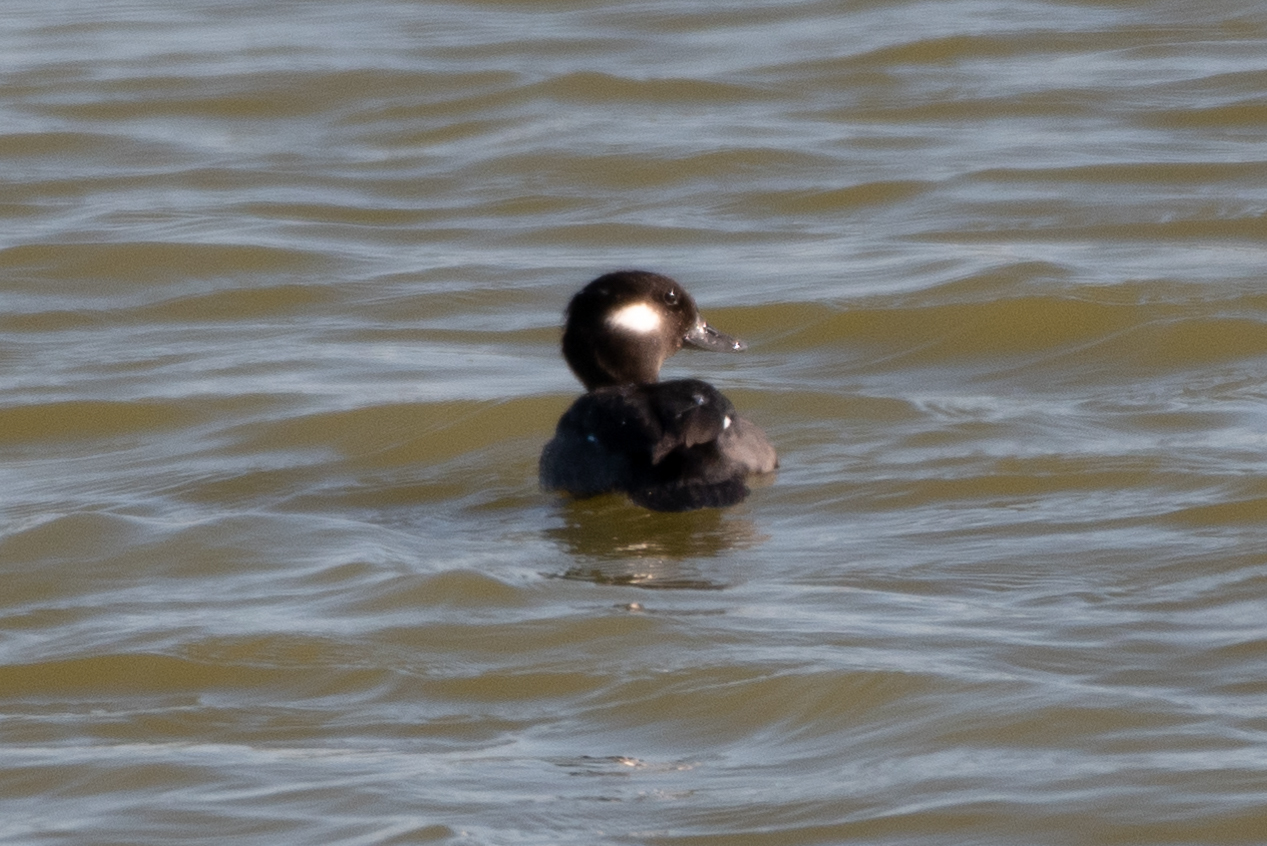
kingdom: Animalia
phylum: Chordata
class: Aves
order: Anseriformes
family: Anatidae
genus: Bucephala
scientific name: Bucephala albeola
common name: Bufflehead
